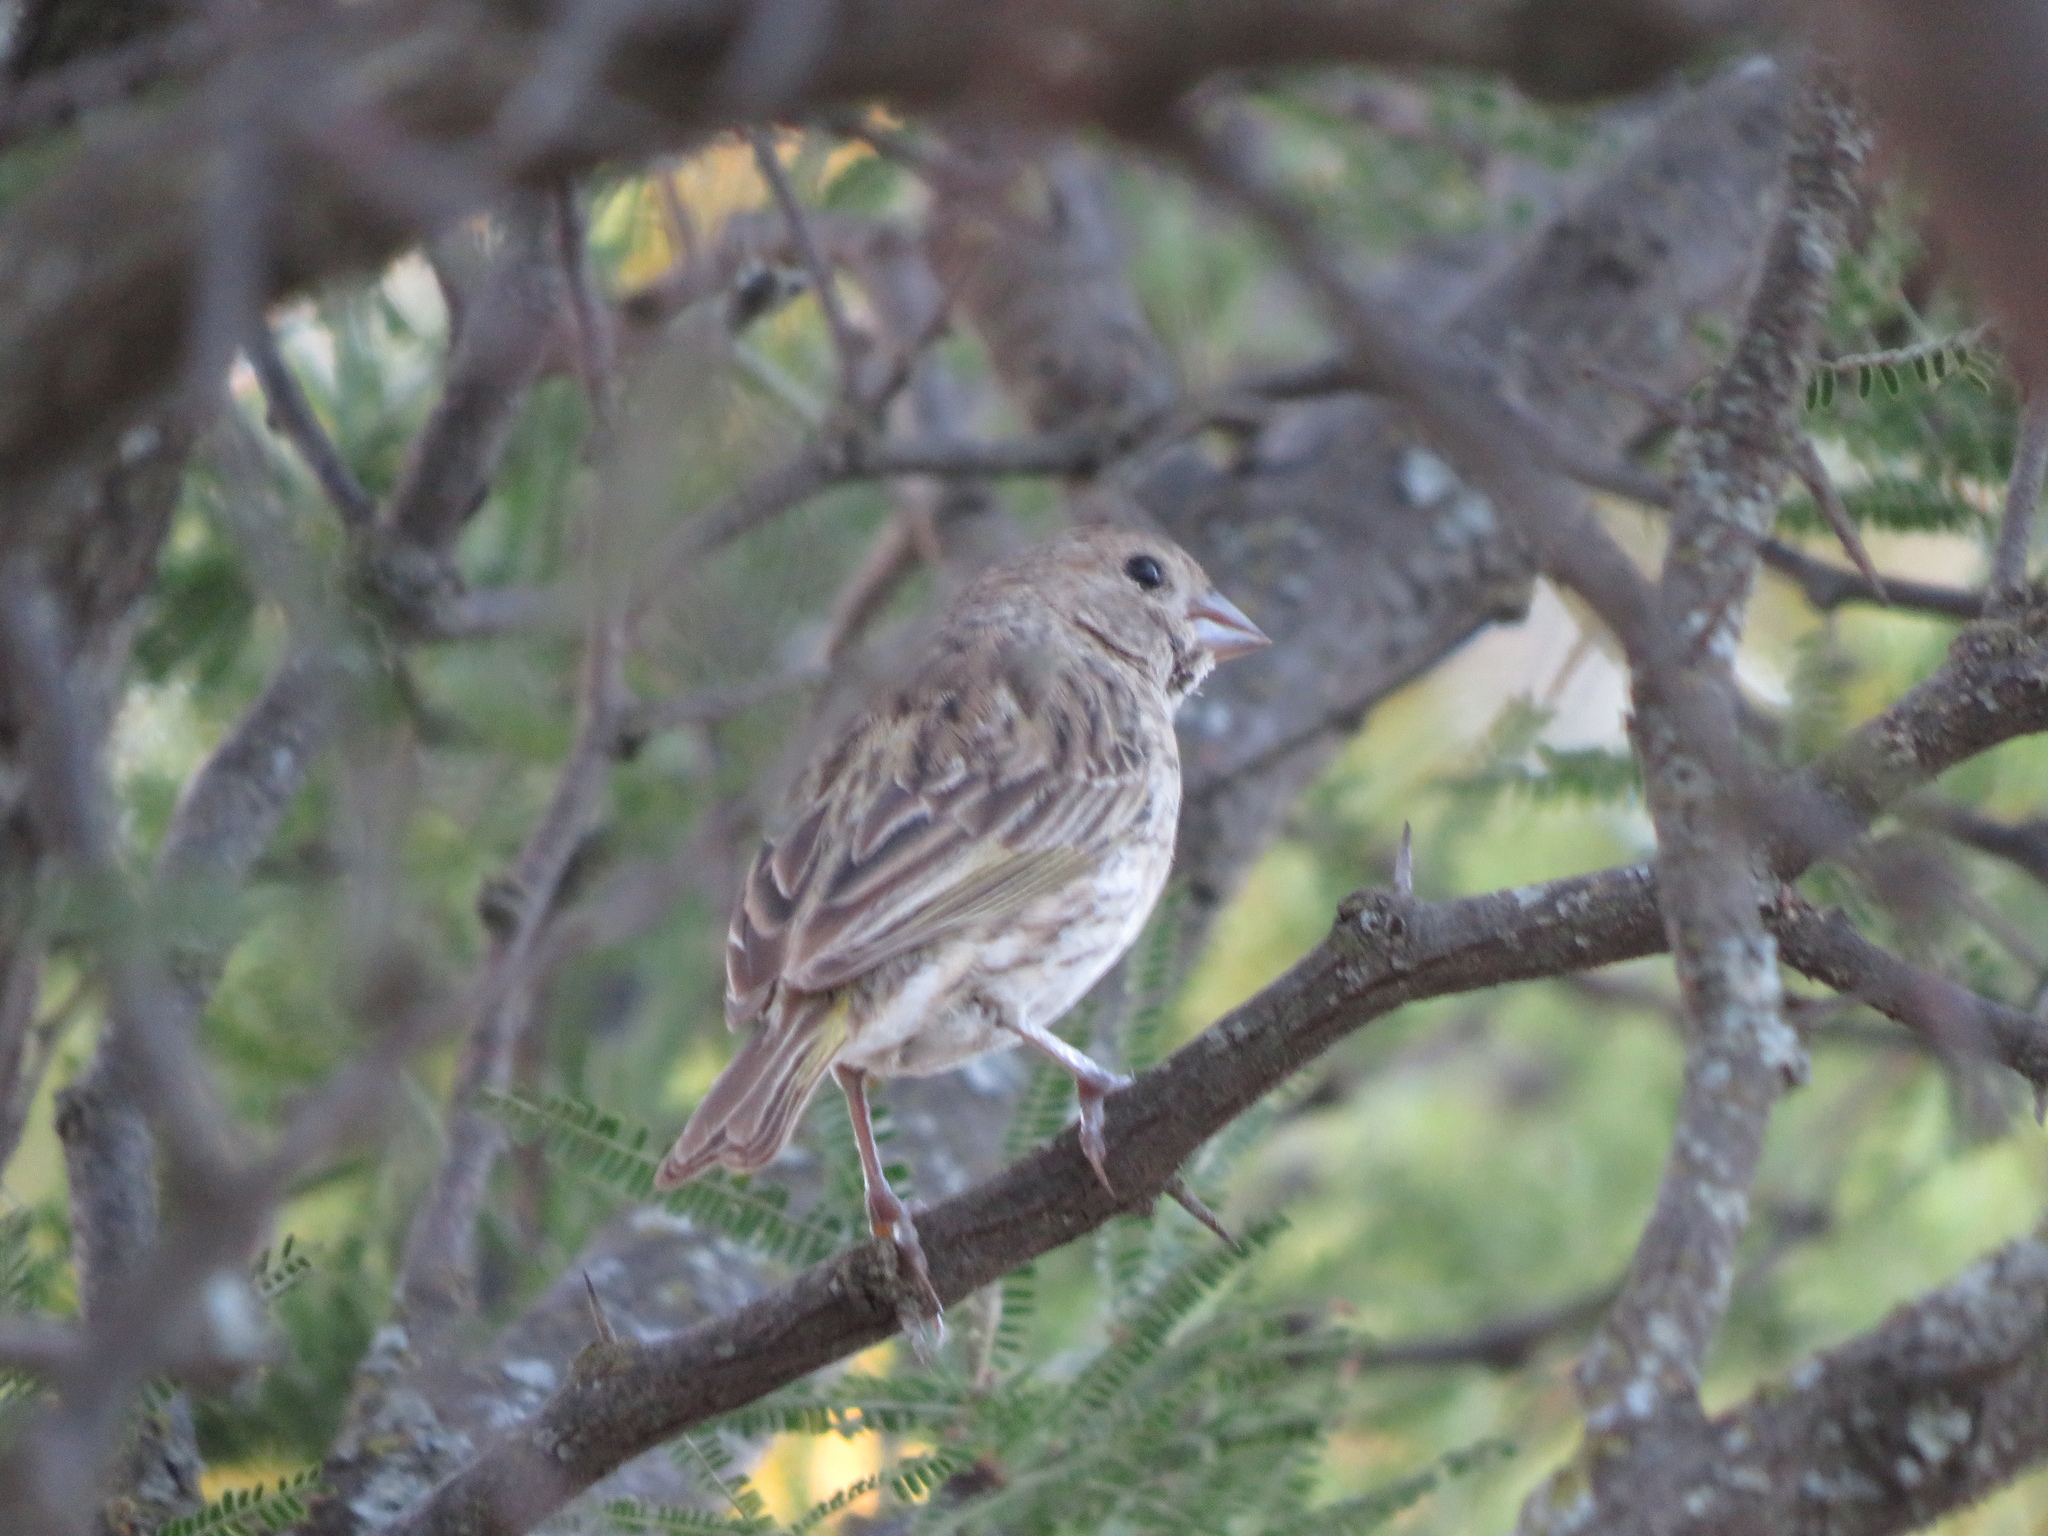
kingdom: Animalia
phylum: Chordata
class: Aves
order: Passeriformes
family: Thraupidae
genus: Sicalis
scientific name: Sicalis flaveola
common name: Saffron finch
